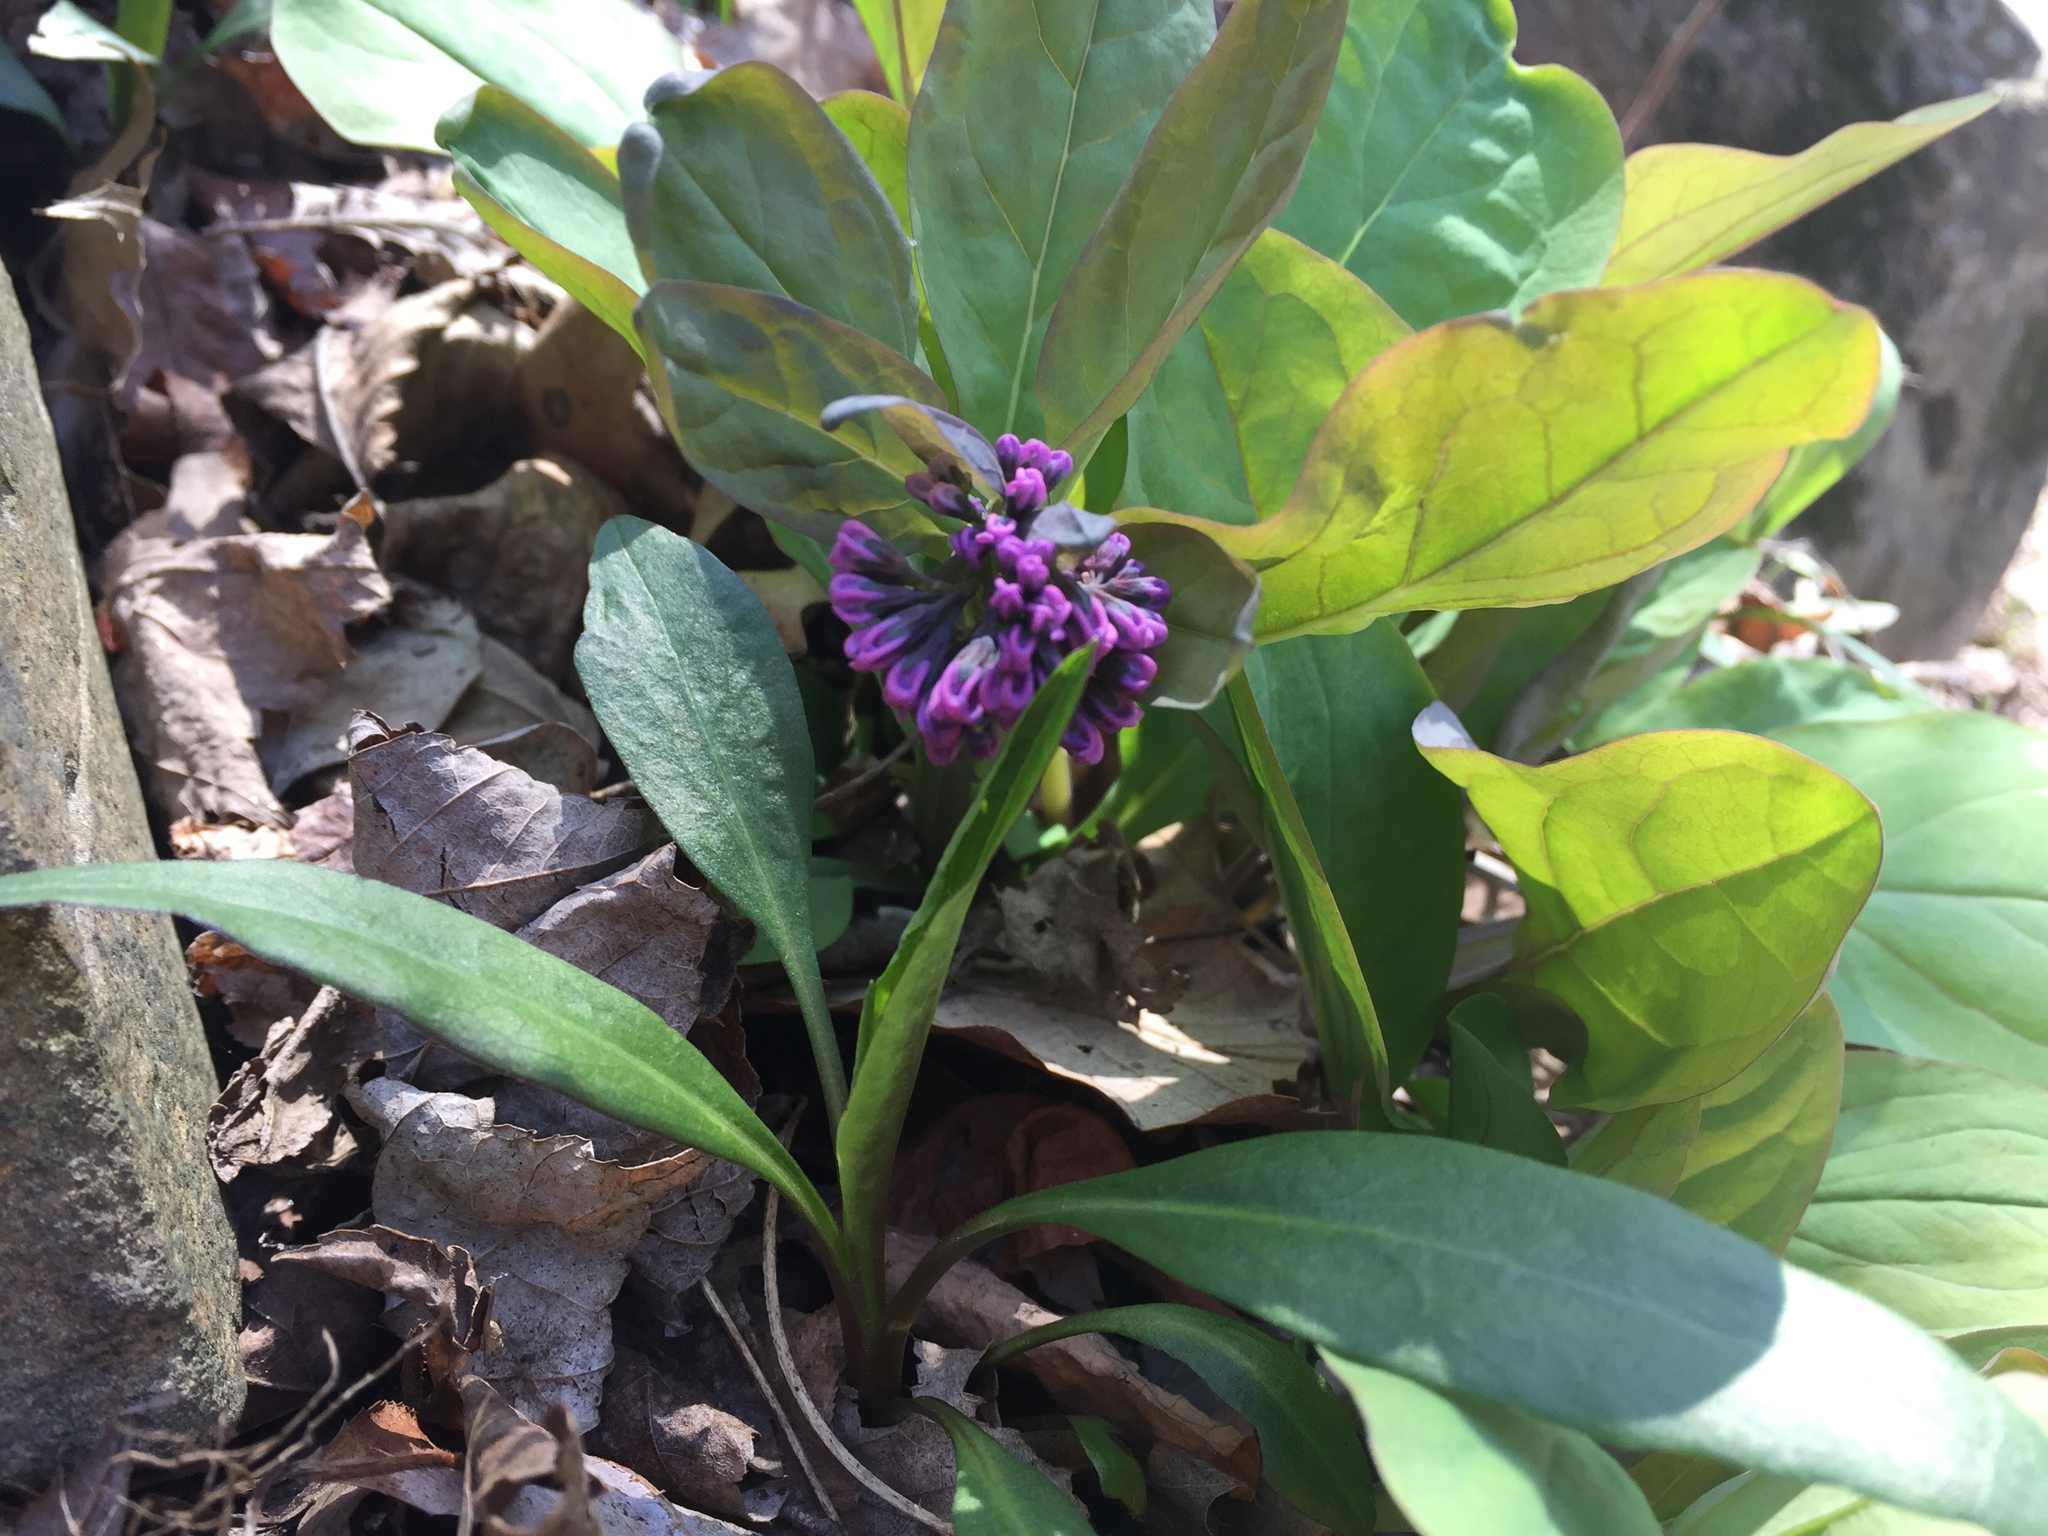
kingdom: Plantae
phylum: Tracheophyta
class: Magnoliopsida
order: Boraginales
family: Boraginaceae
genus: Mertensia
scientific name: Mertensia virginica
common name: Virginia bluebells
